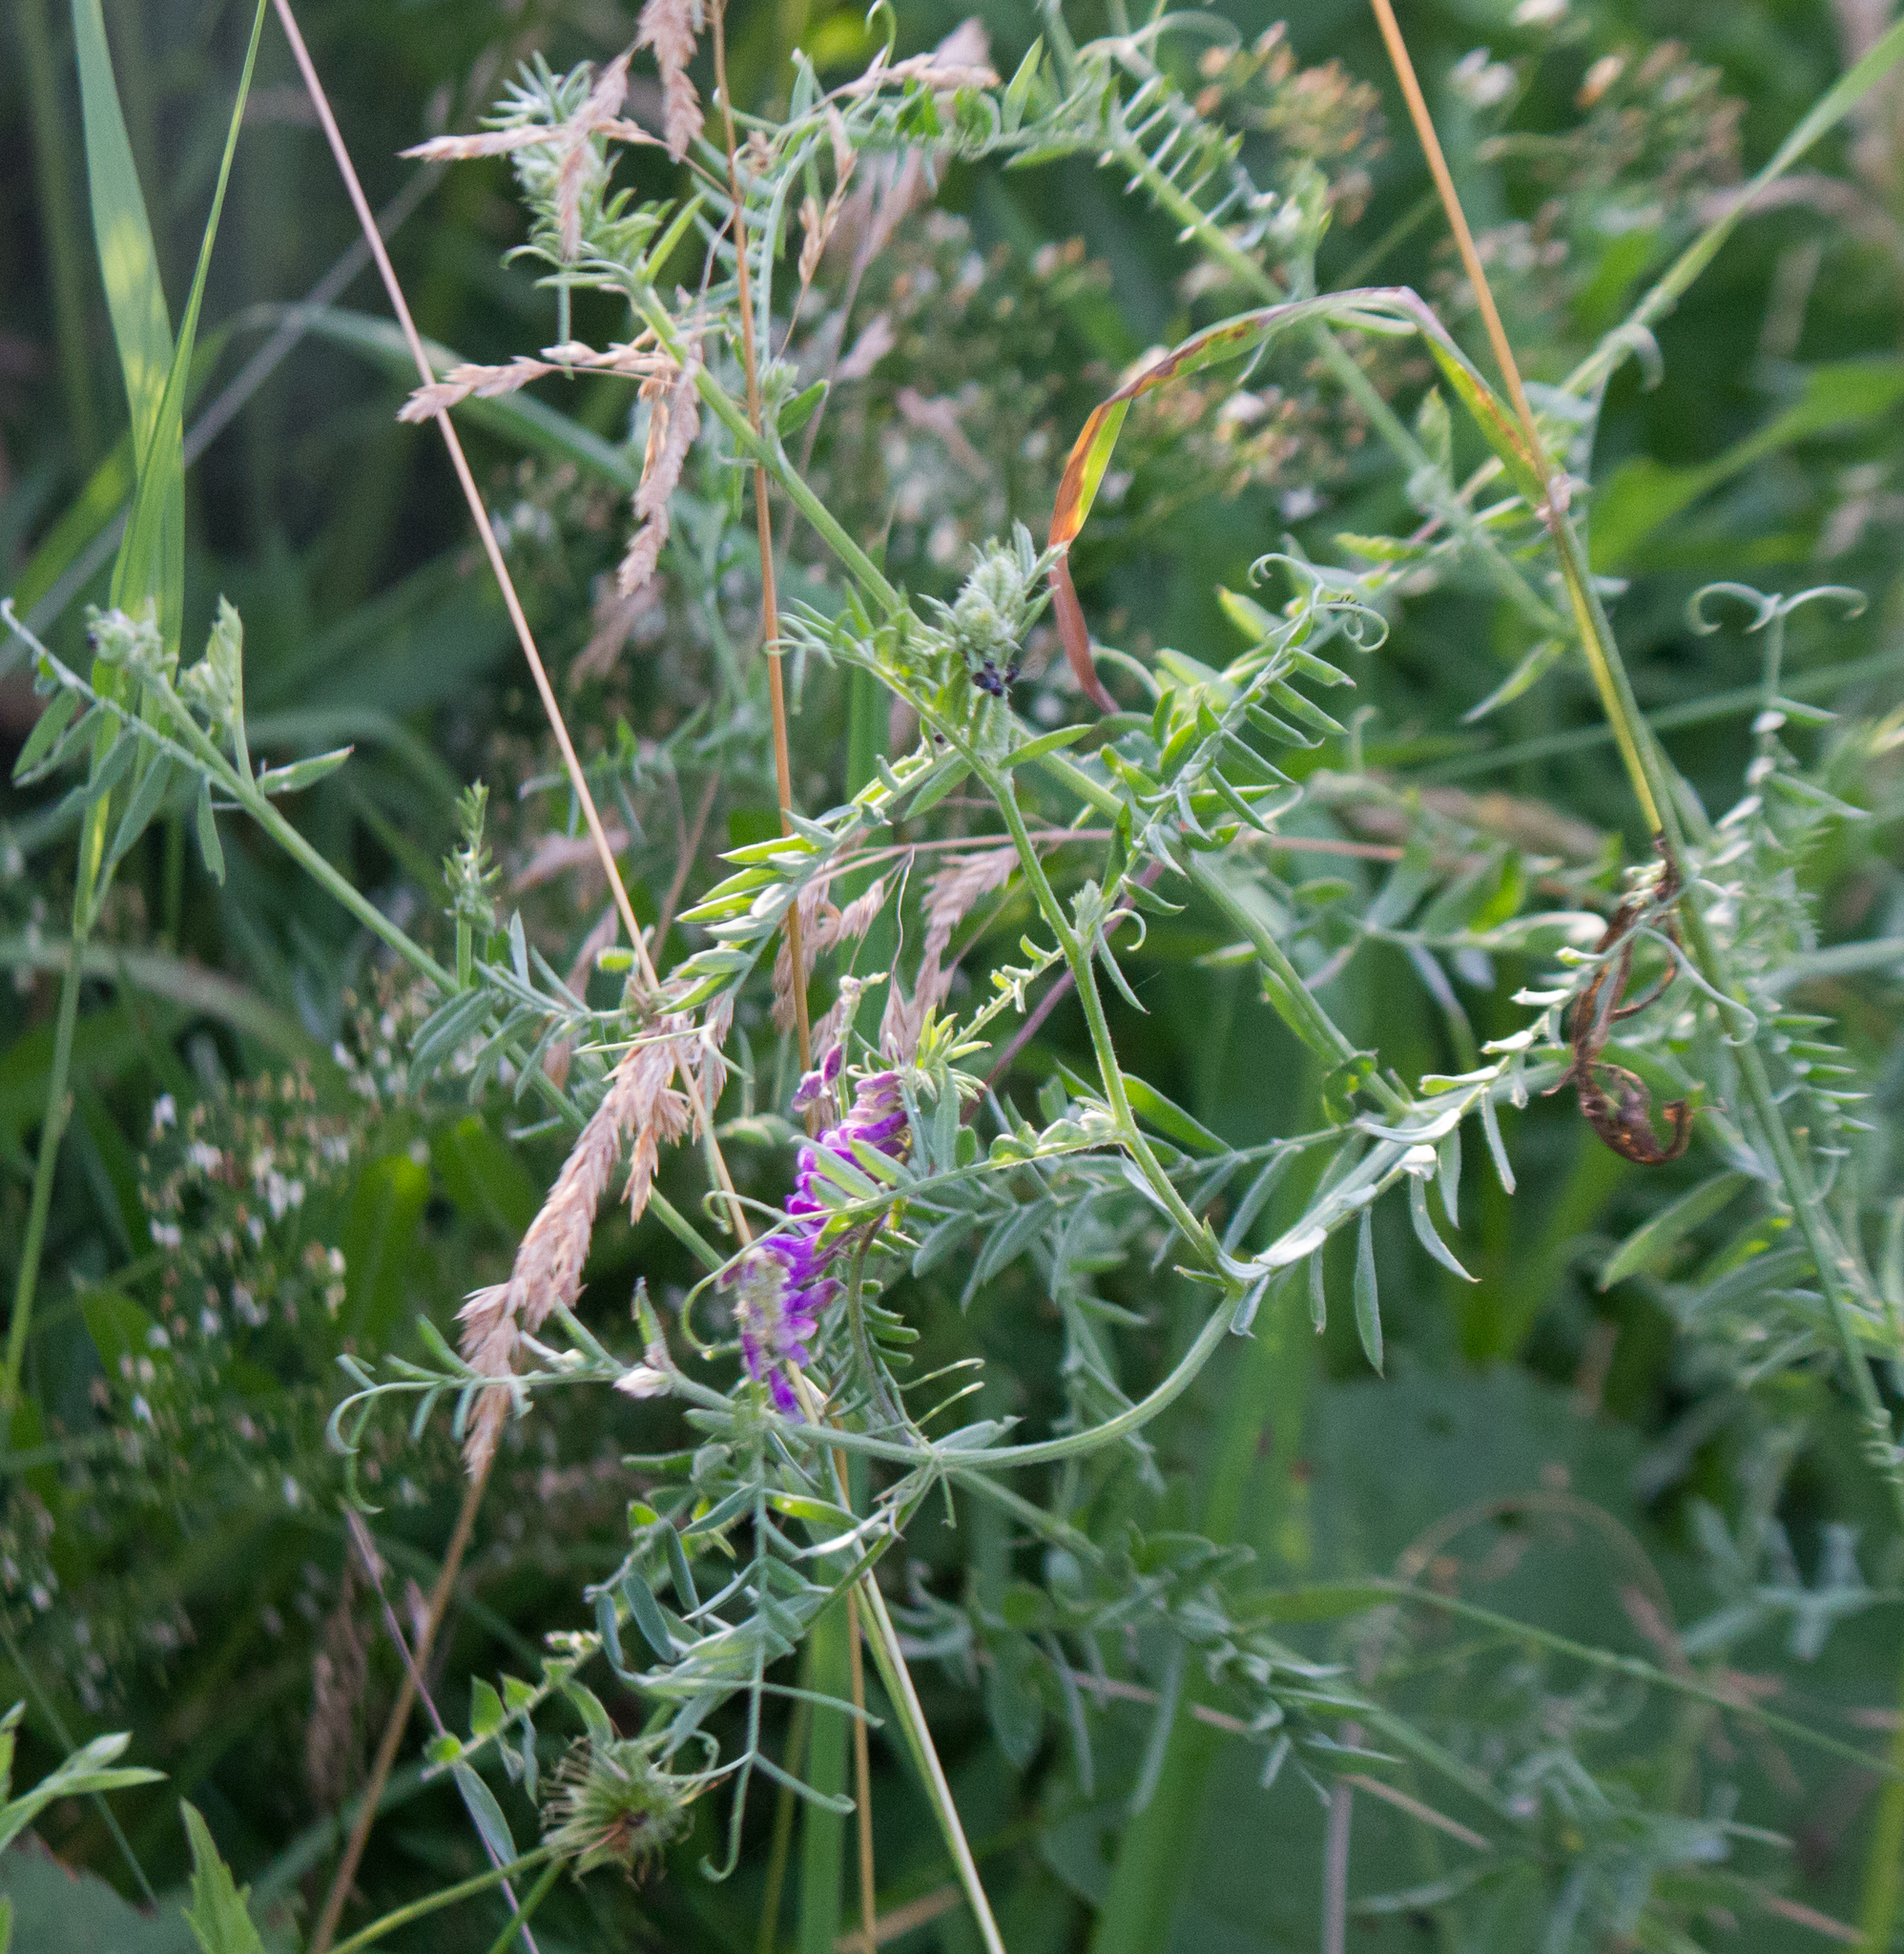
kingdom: Plantae
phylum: Tracheophyta
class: Magnoliopsida
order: Fabales
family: Fabaceae
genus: Vicia
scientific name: Vicia cracca
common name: Bird vetch
